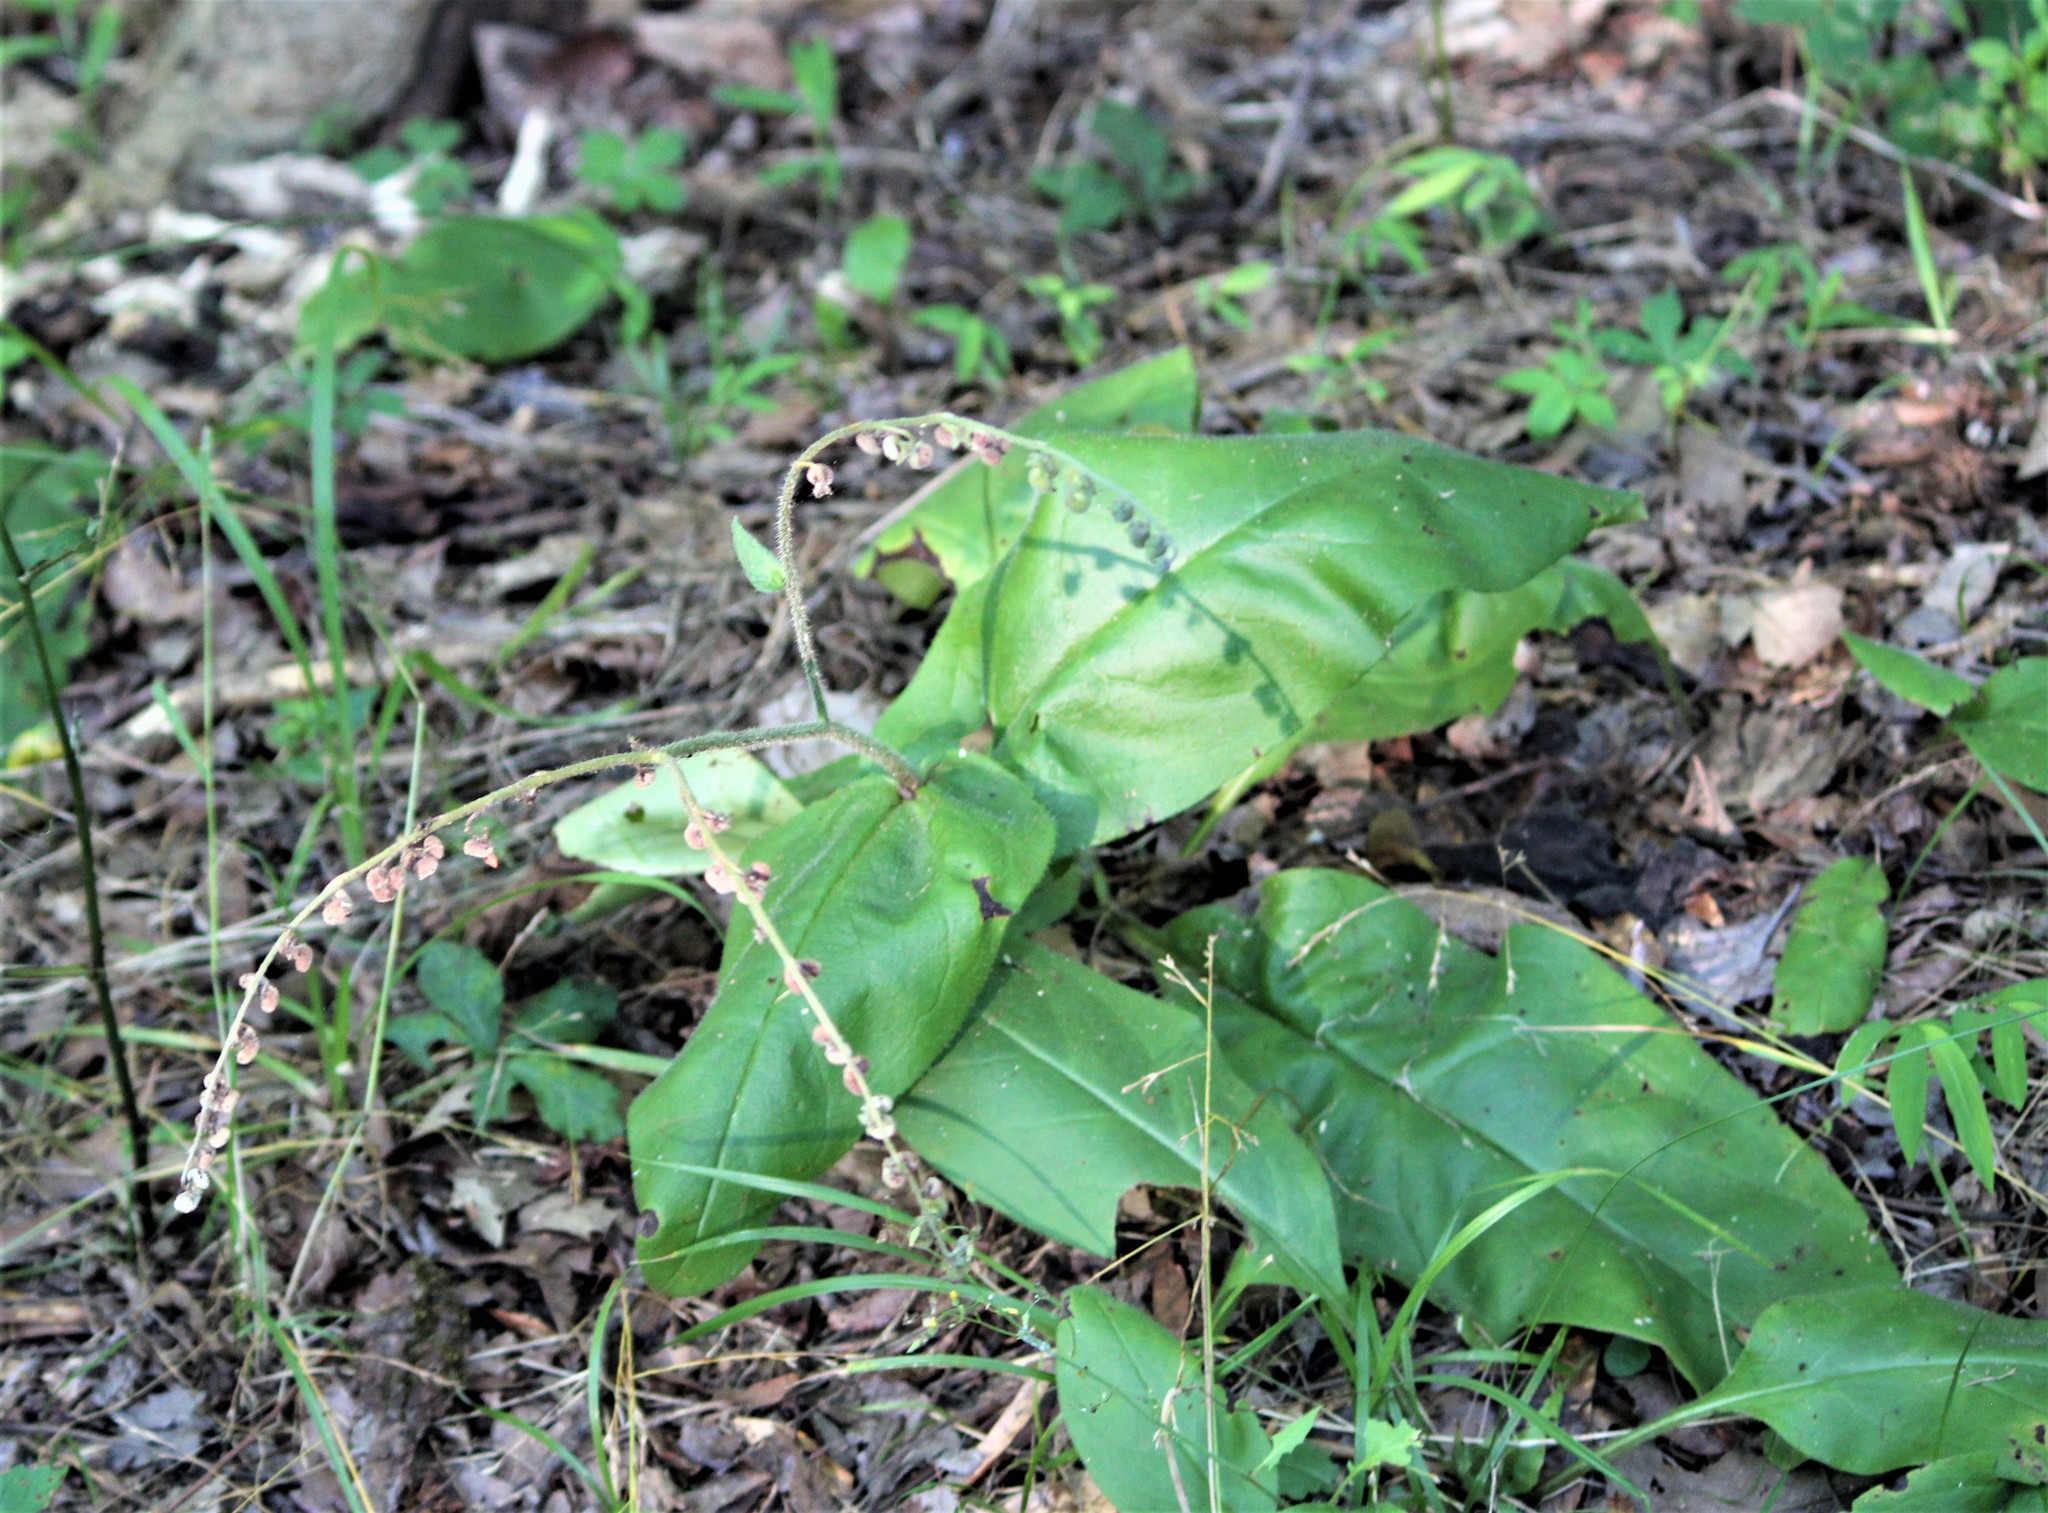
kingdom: Plantae
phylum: Tracheophyta
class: Magnoliopsida
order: Boraginales
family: Boraginaceae
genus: Andersonglossum
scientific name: Andersonglossum virginianum
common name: Wild comfrey
